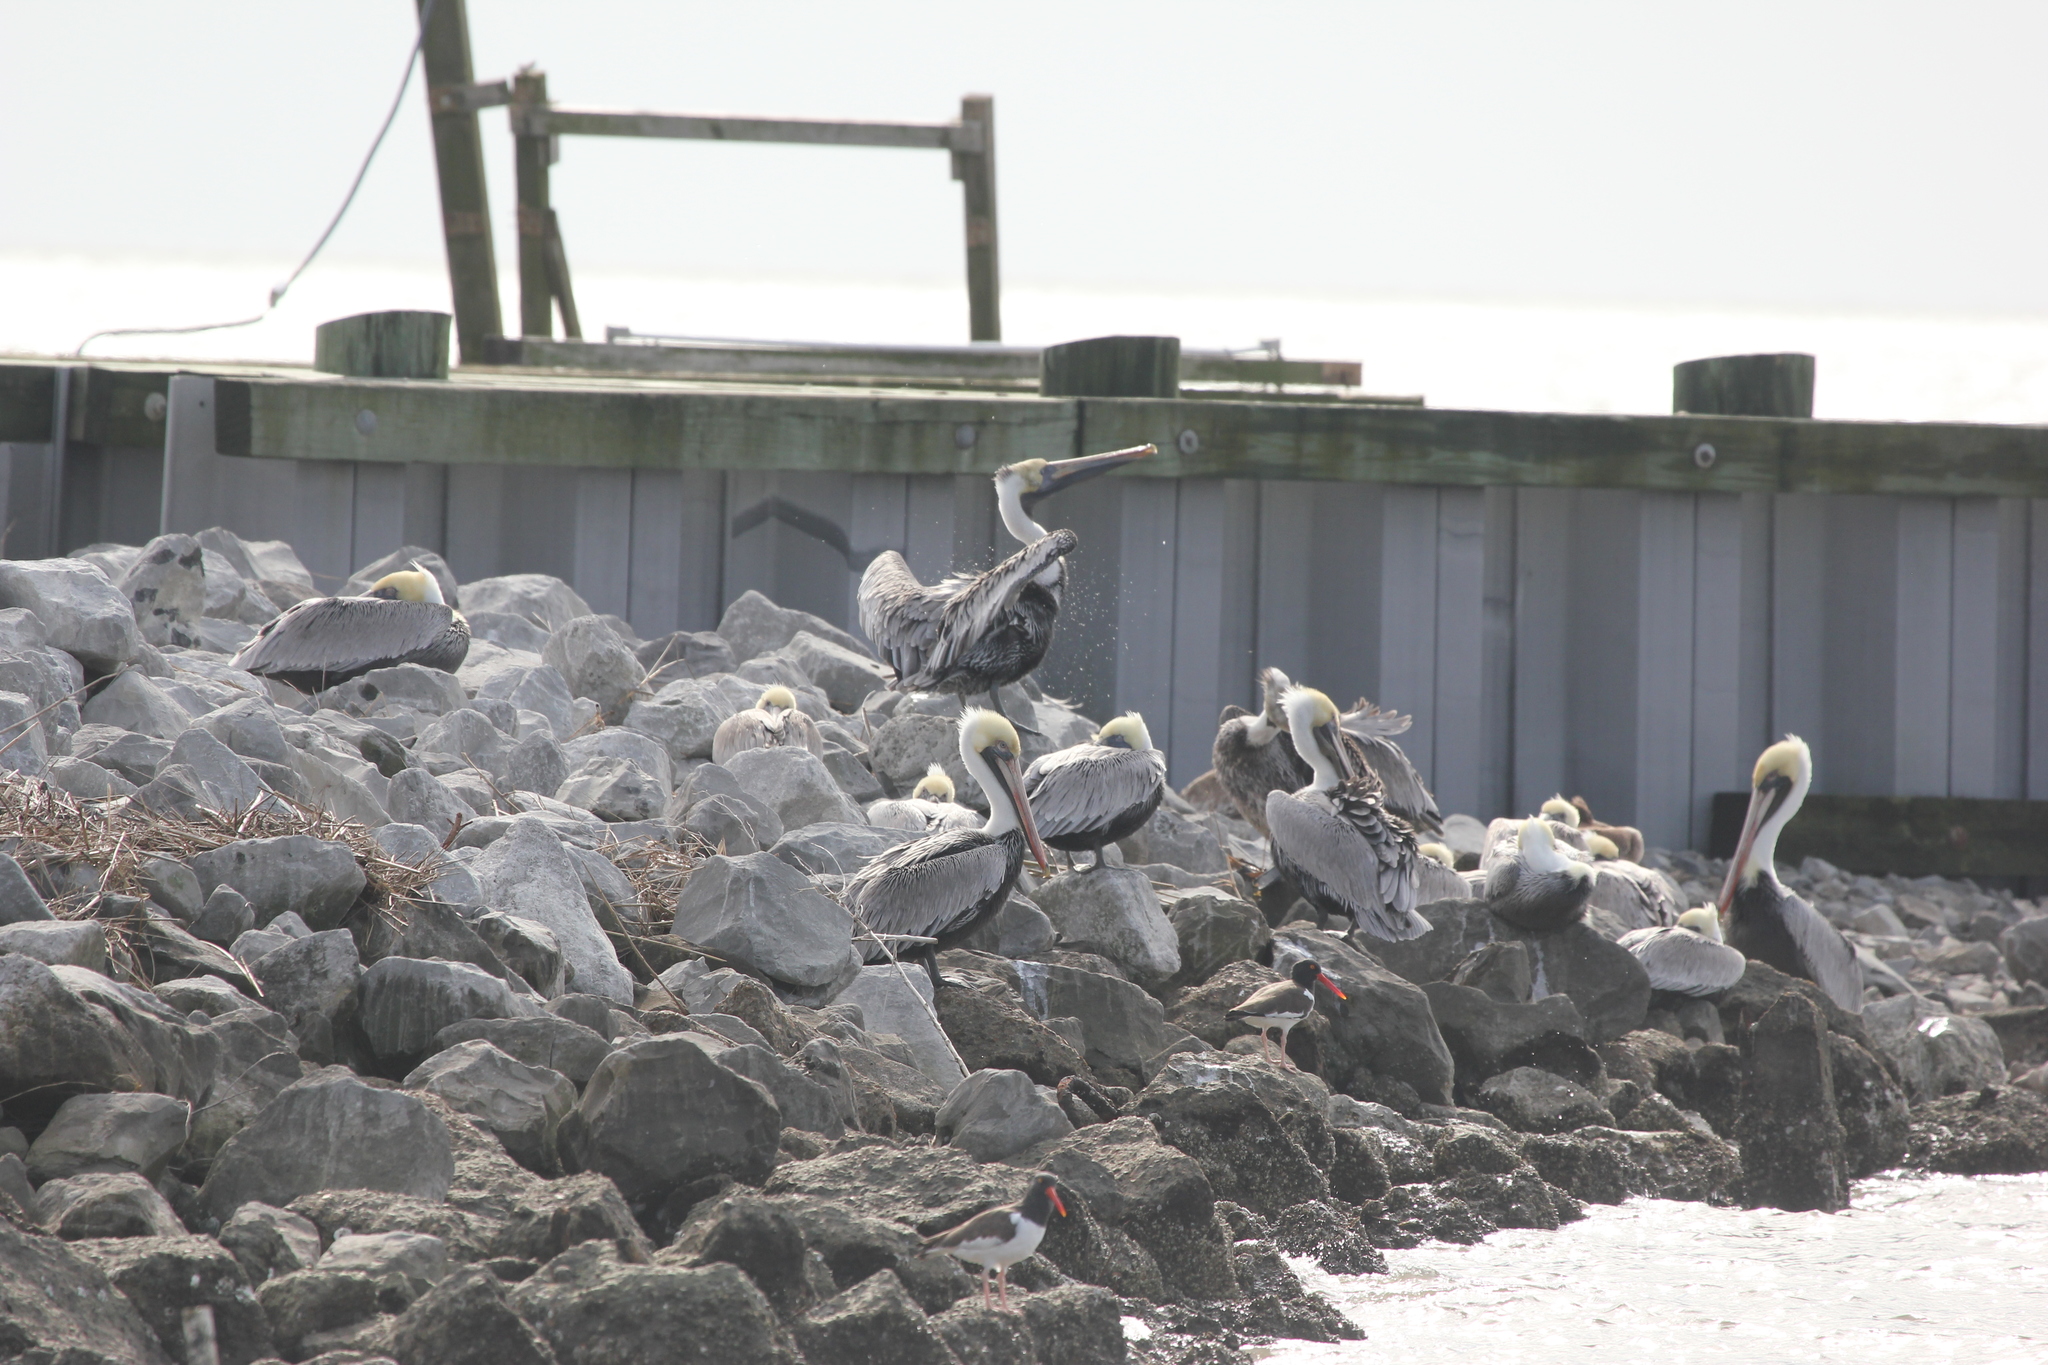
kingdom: Animalia
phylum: Chordata
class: Aves
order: Pelecaniformes
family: Pelecanidae
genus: Pelecanus
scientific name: Pelecanus occidentalis
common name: Brown pelican
